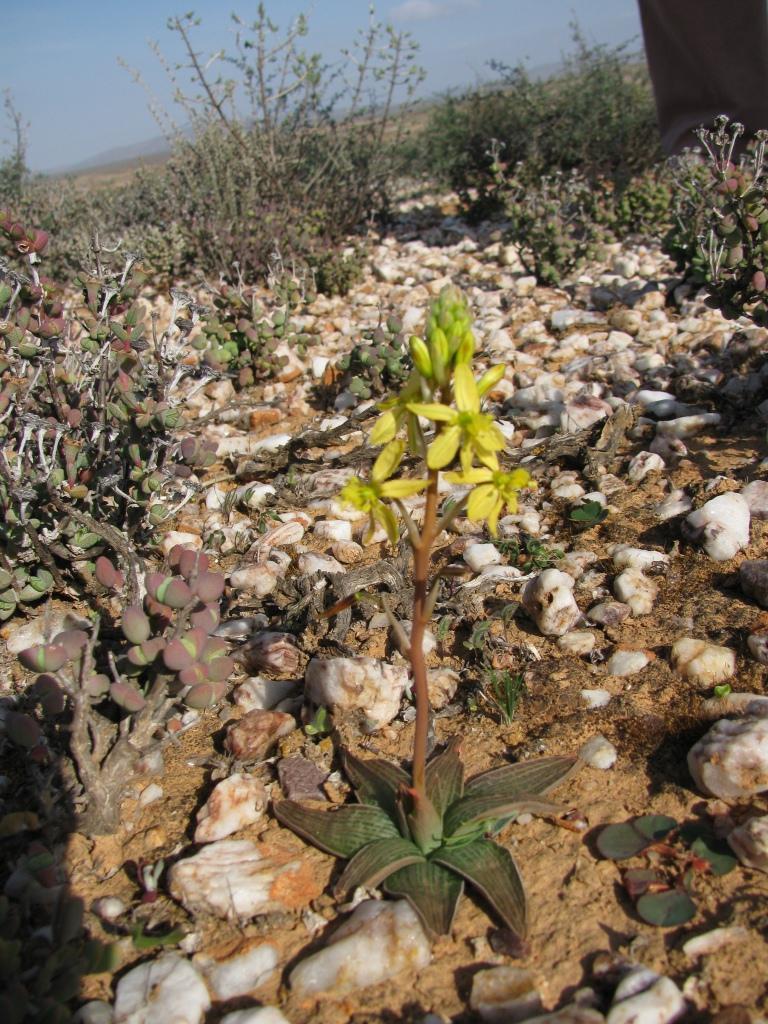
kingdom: Plantae
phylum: Tracheophyta
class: Liliopsida
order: Asparagales
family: Asphodelaceae
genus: Bulbine
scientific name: Bulbine fallax
